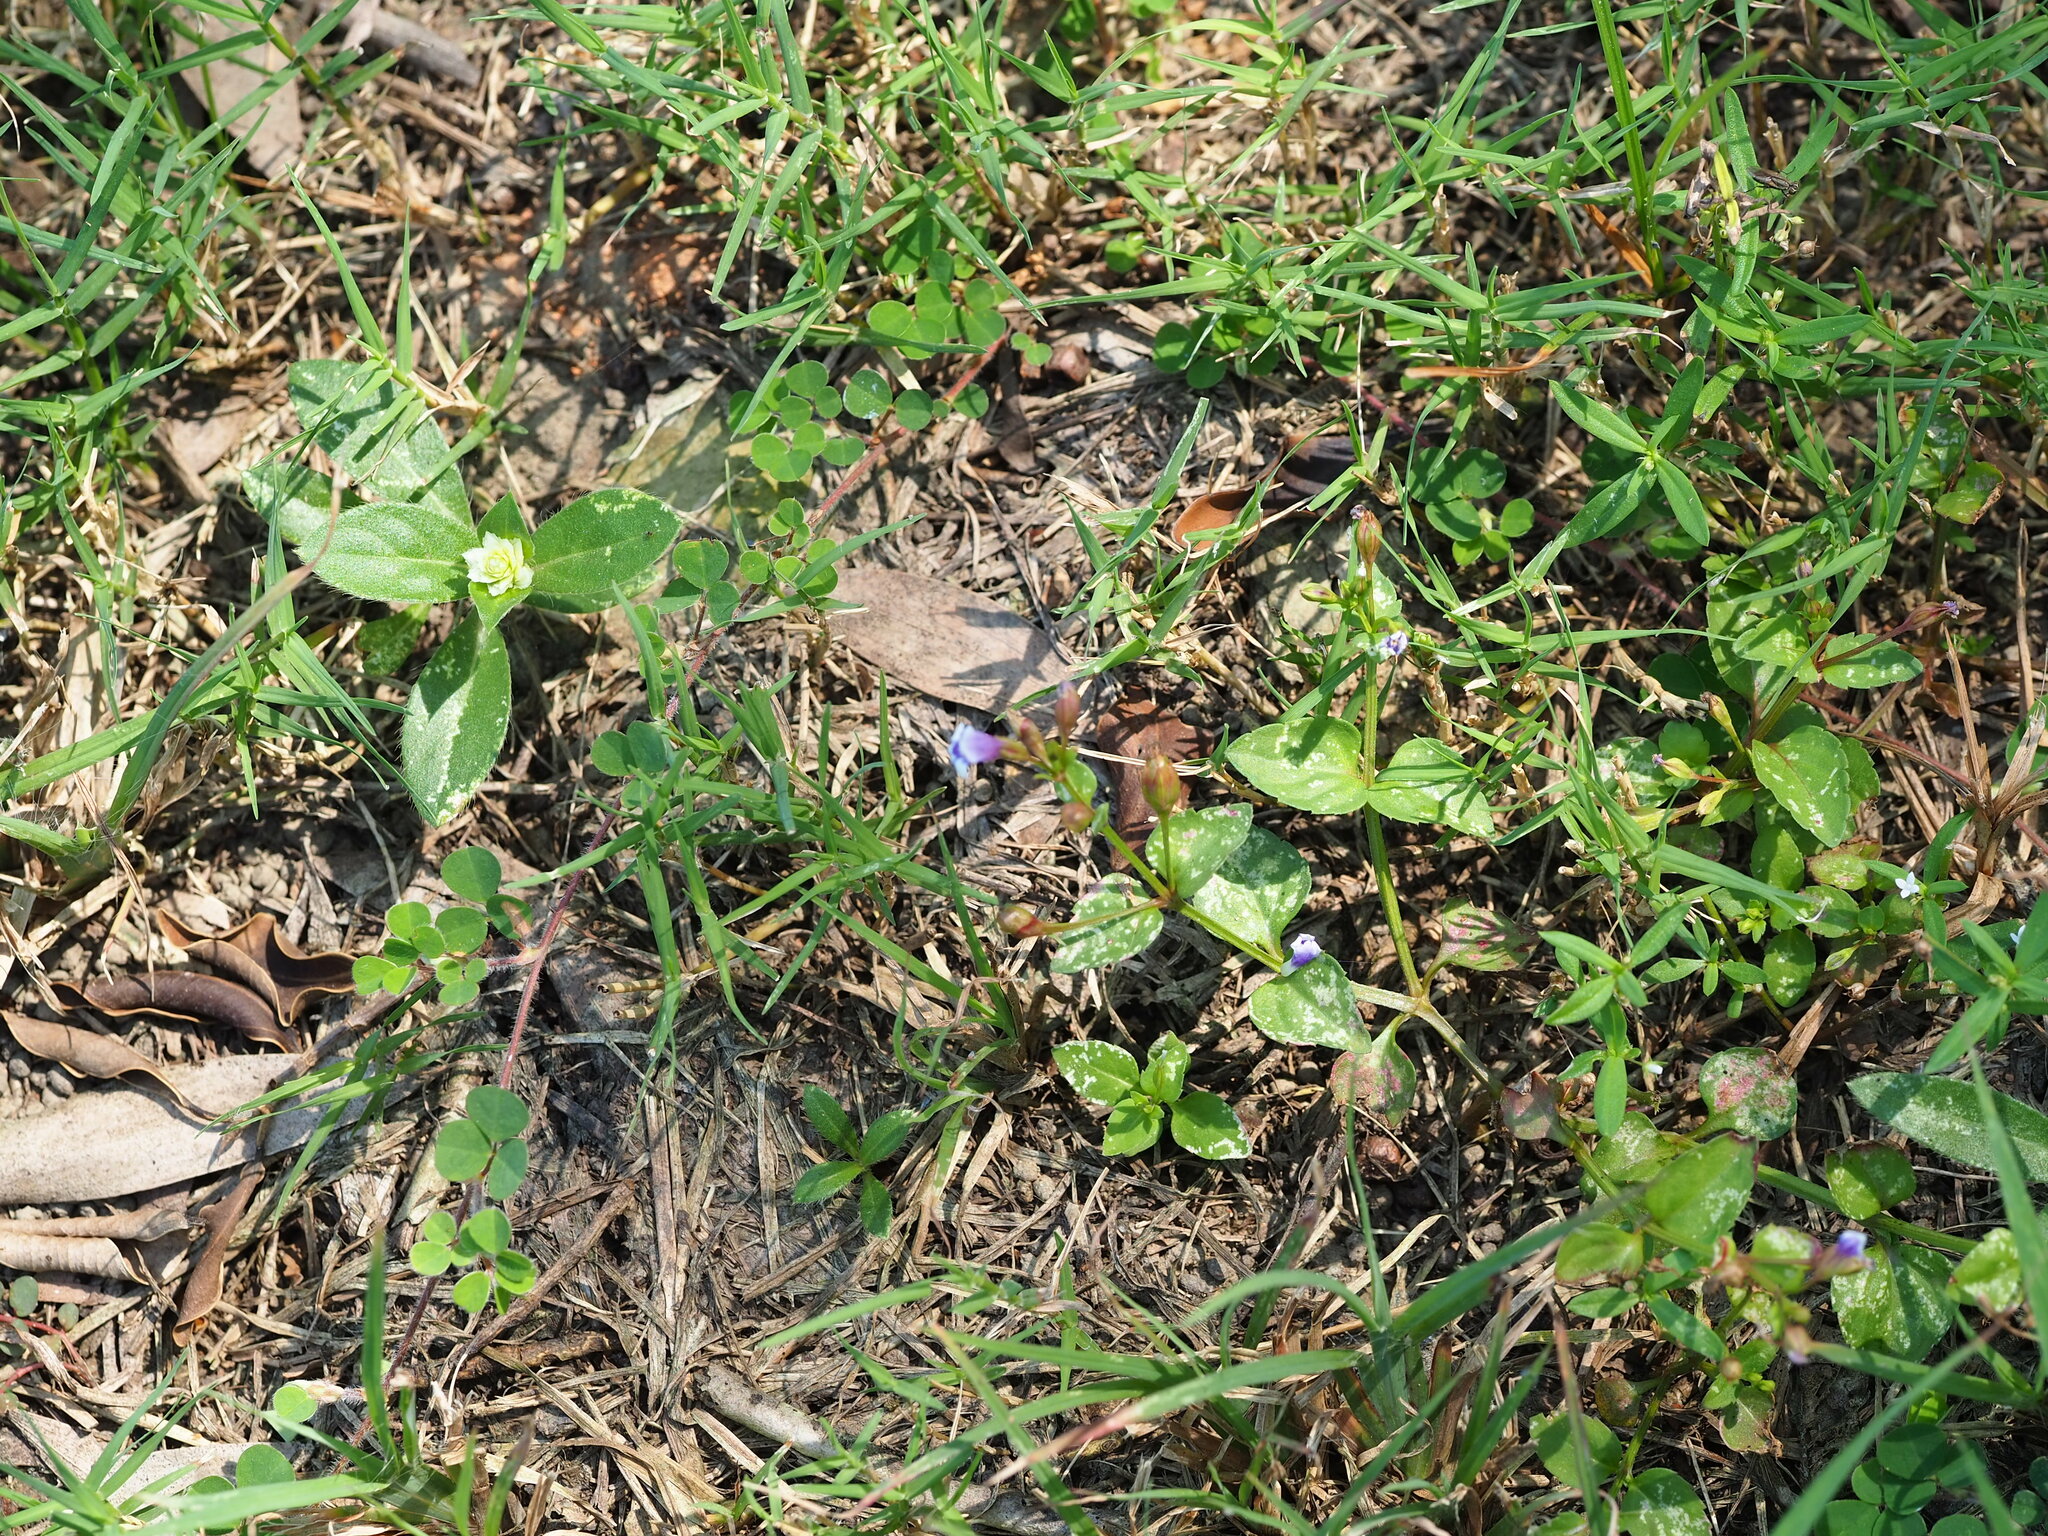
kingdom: Plantae
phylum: Tracheophyta
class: Magnoliopsida
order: Lamiales
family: Linderniaceae
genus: Torenia
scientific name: Torenia crustacea
